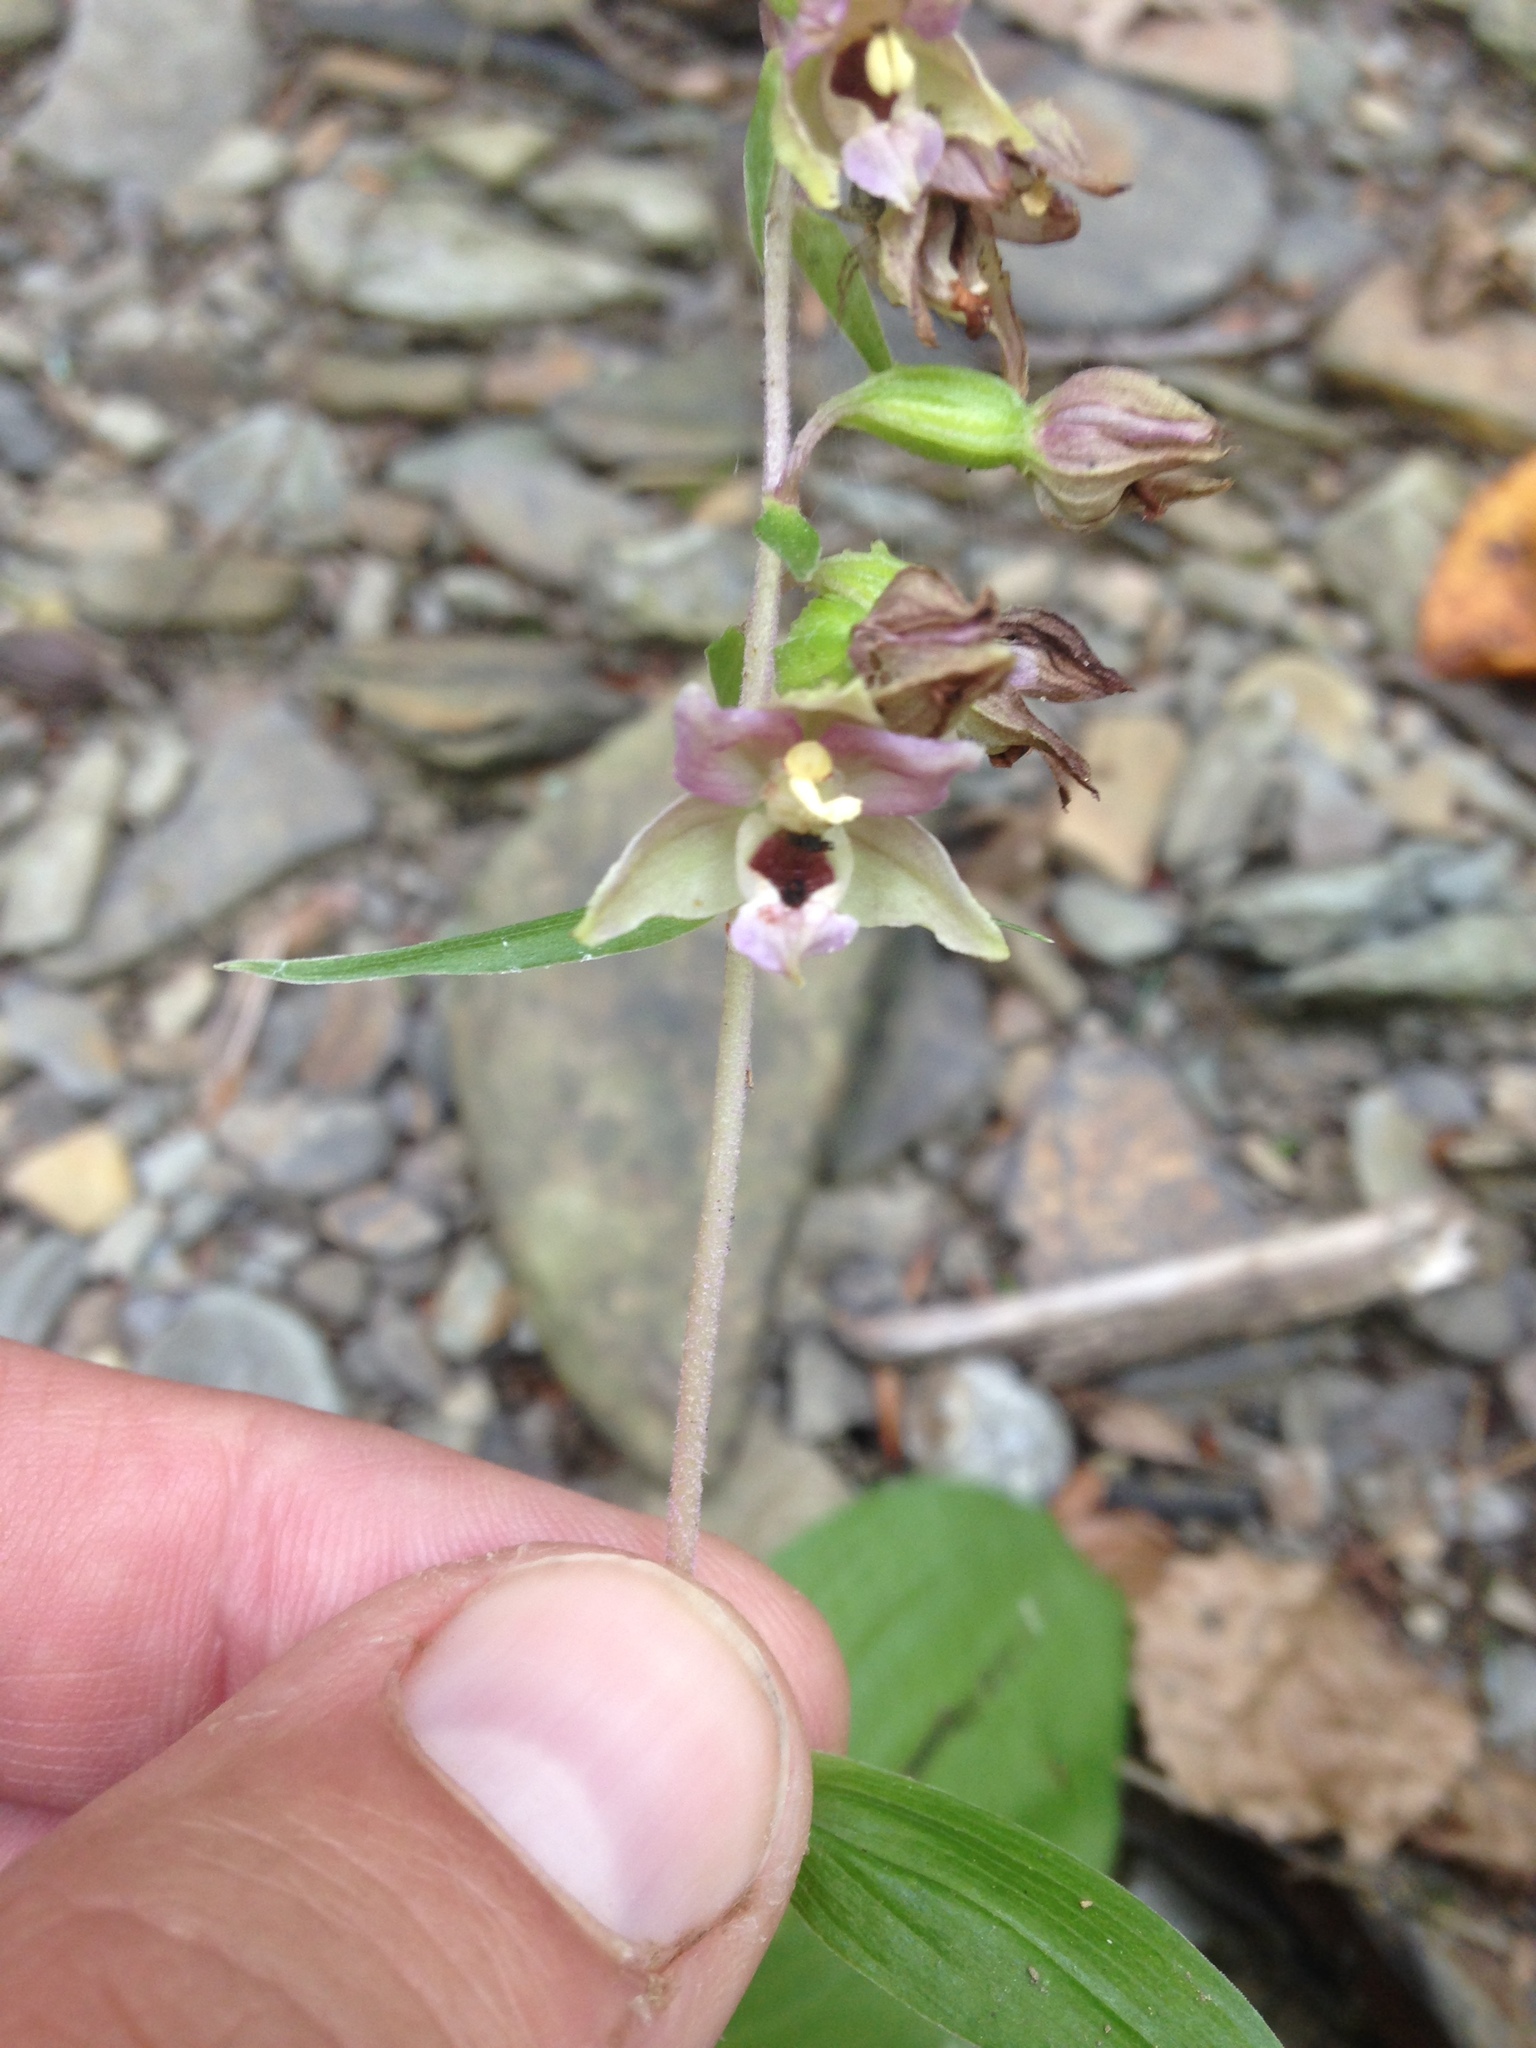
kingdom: Plantae
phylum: Tracheophyta
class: Liliopsida
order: Asparagales
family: Orchidaceae
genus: Epipactis
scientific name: Epipactis helleborine
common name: Broad-leaved helleborine
